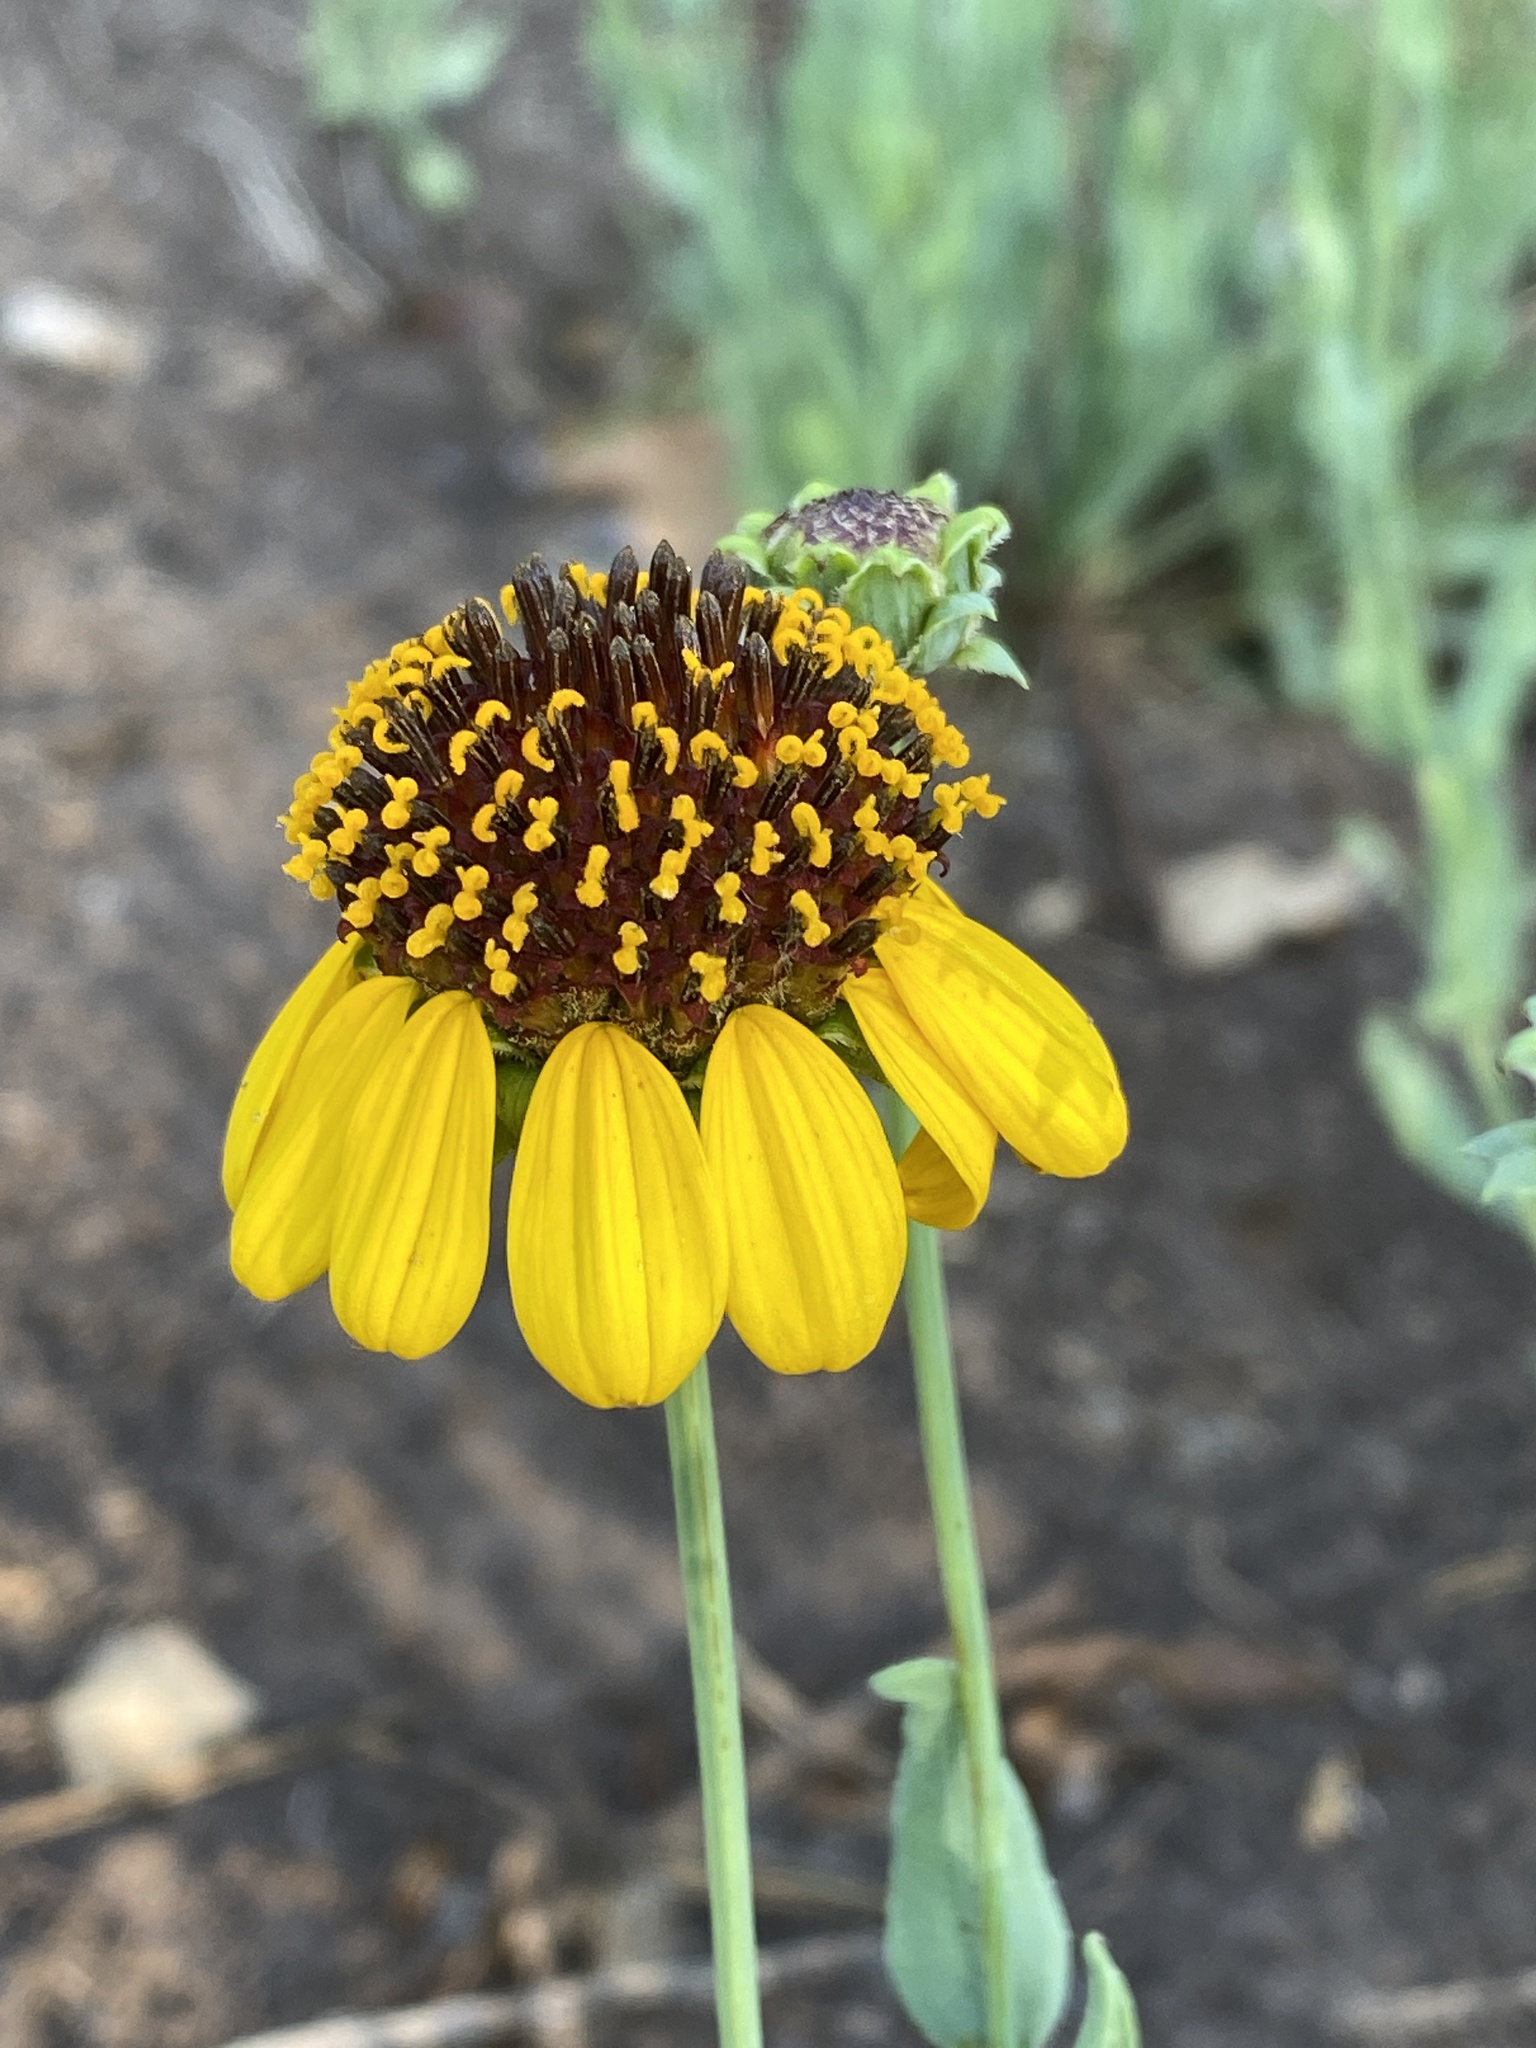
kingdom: Plantae
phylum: Tracheophyta
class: Magnoliopsida
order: Asterales
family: Asteraceae
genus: Helianthus
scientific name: Helianthus ciliaris
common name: Texas blueweed
